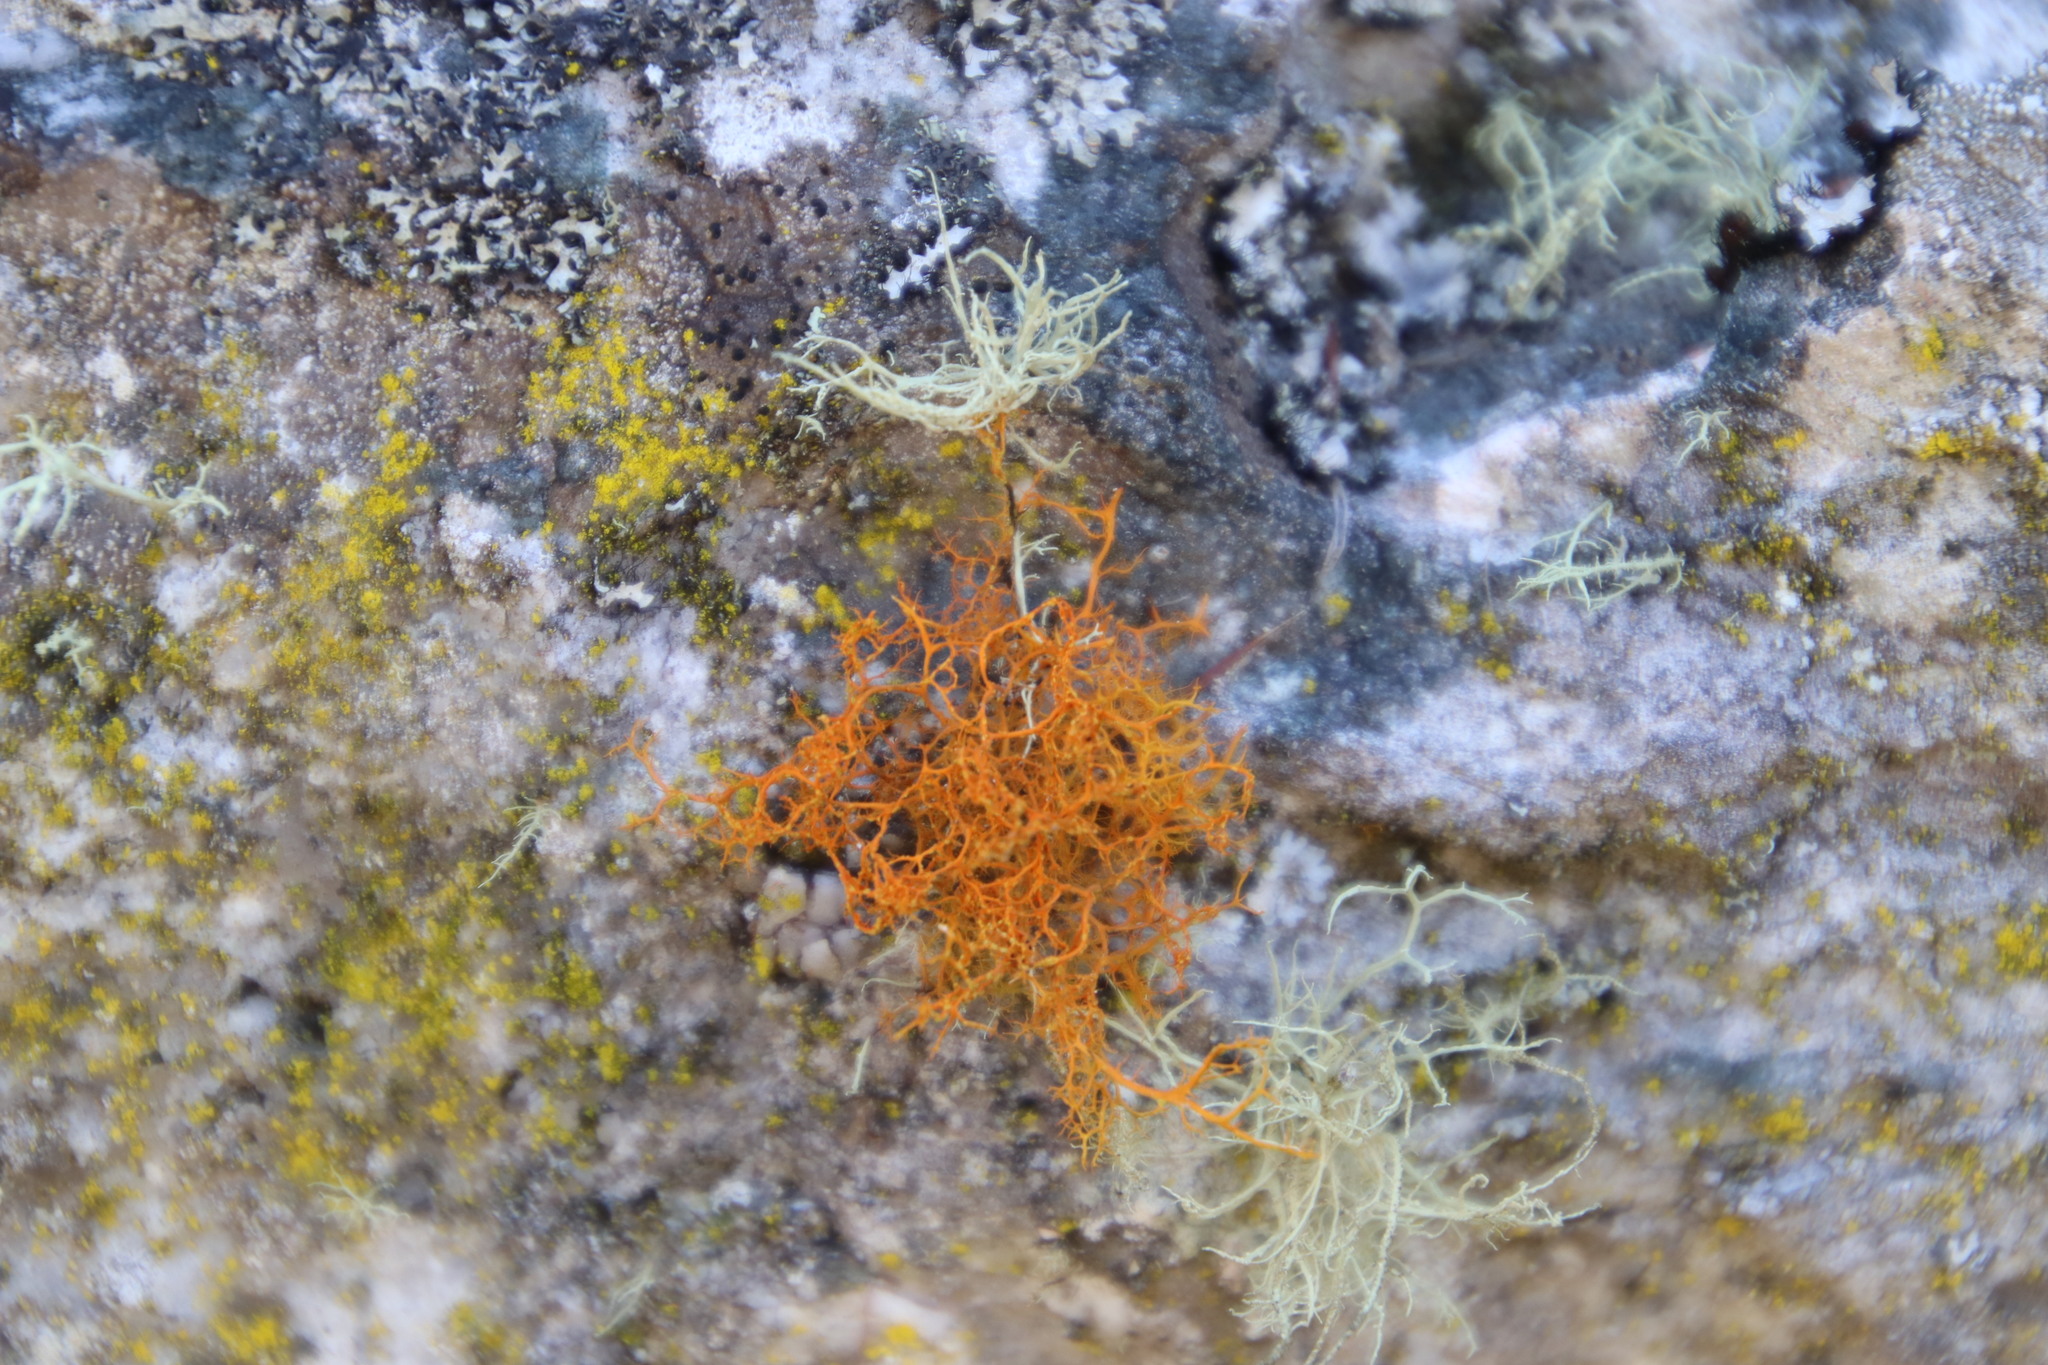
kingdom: Fungi
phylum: Ascomycota
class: Lecanoromycetes
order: Teloschistales
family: Teloschistaceae
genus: Teloschistes
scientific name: Teloschistes flavicans
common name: Golden hair-lichen
